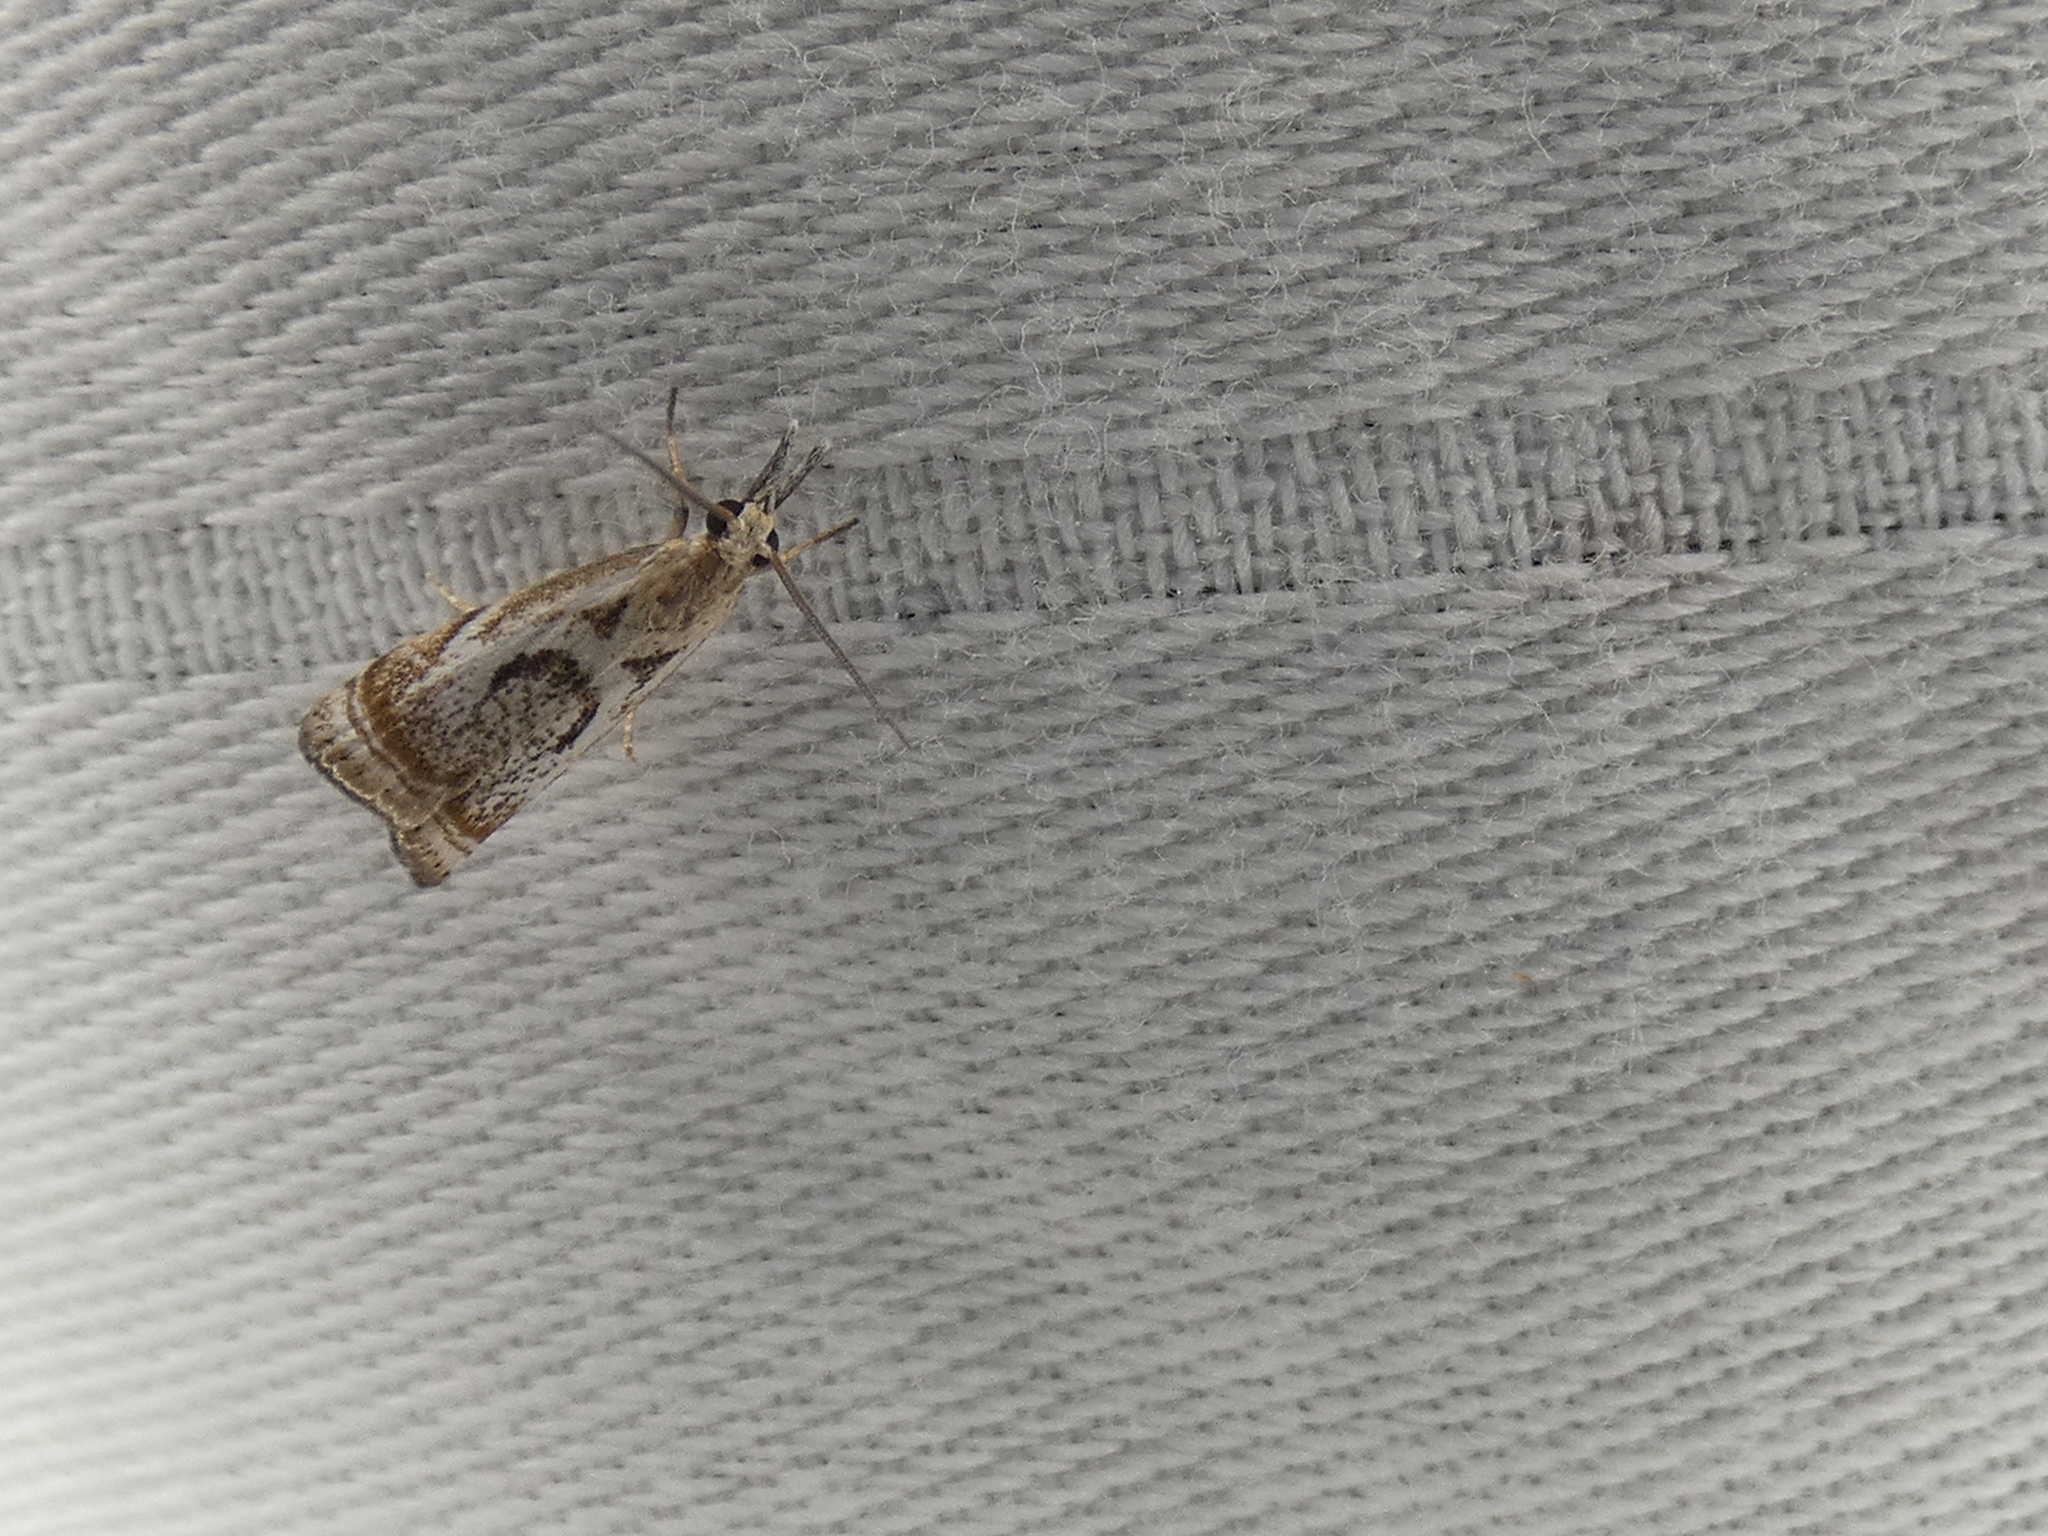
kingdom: Animalia
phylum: Arthropoda
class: Insecta
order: Lepidoptera
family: Crambidae
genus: Microcrambus
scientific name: Microcrambus elegans
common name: Elegant grass-veneer
